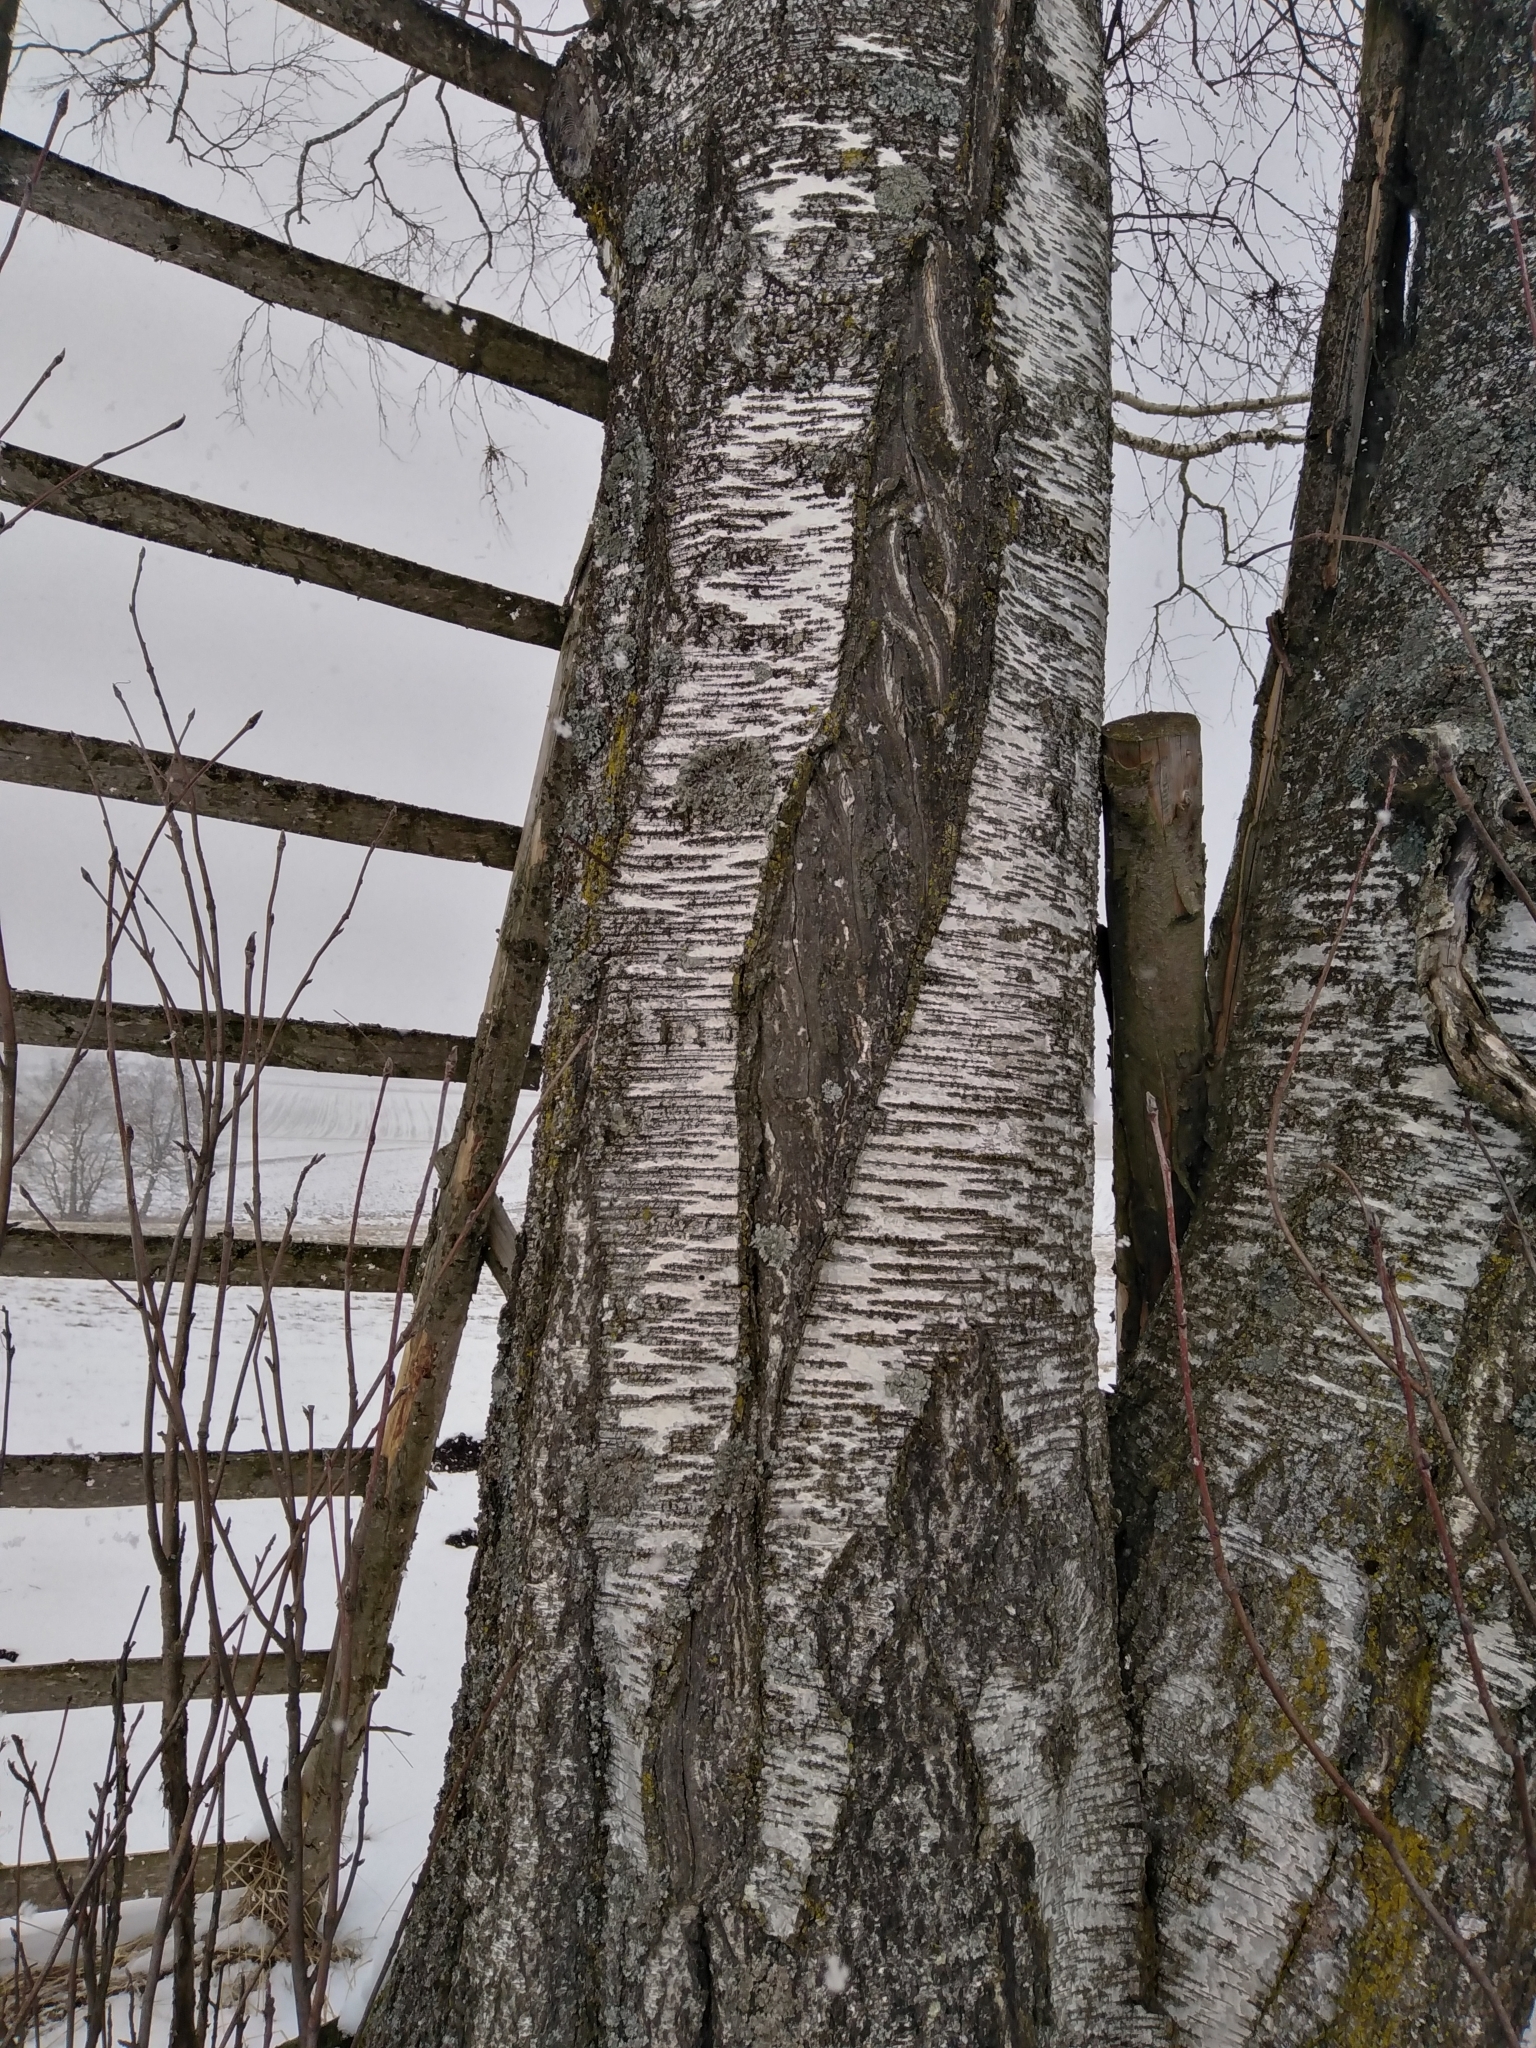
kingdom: Plantae
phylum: Tracheophyta
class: Magnoliopsida
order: Fagales
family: Betulaceae
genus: Betula
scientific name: Betula pendula
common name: Silver birch
